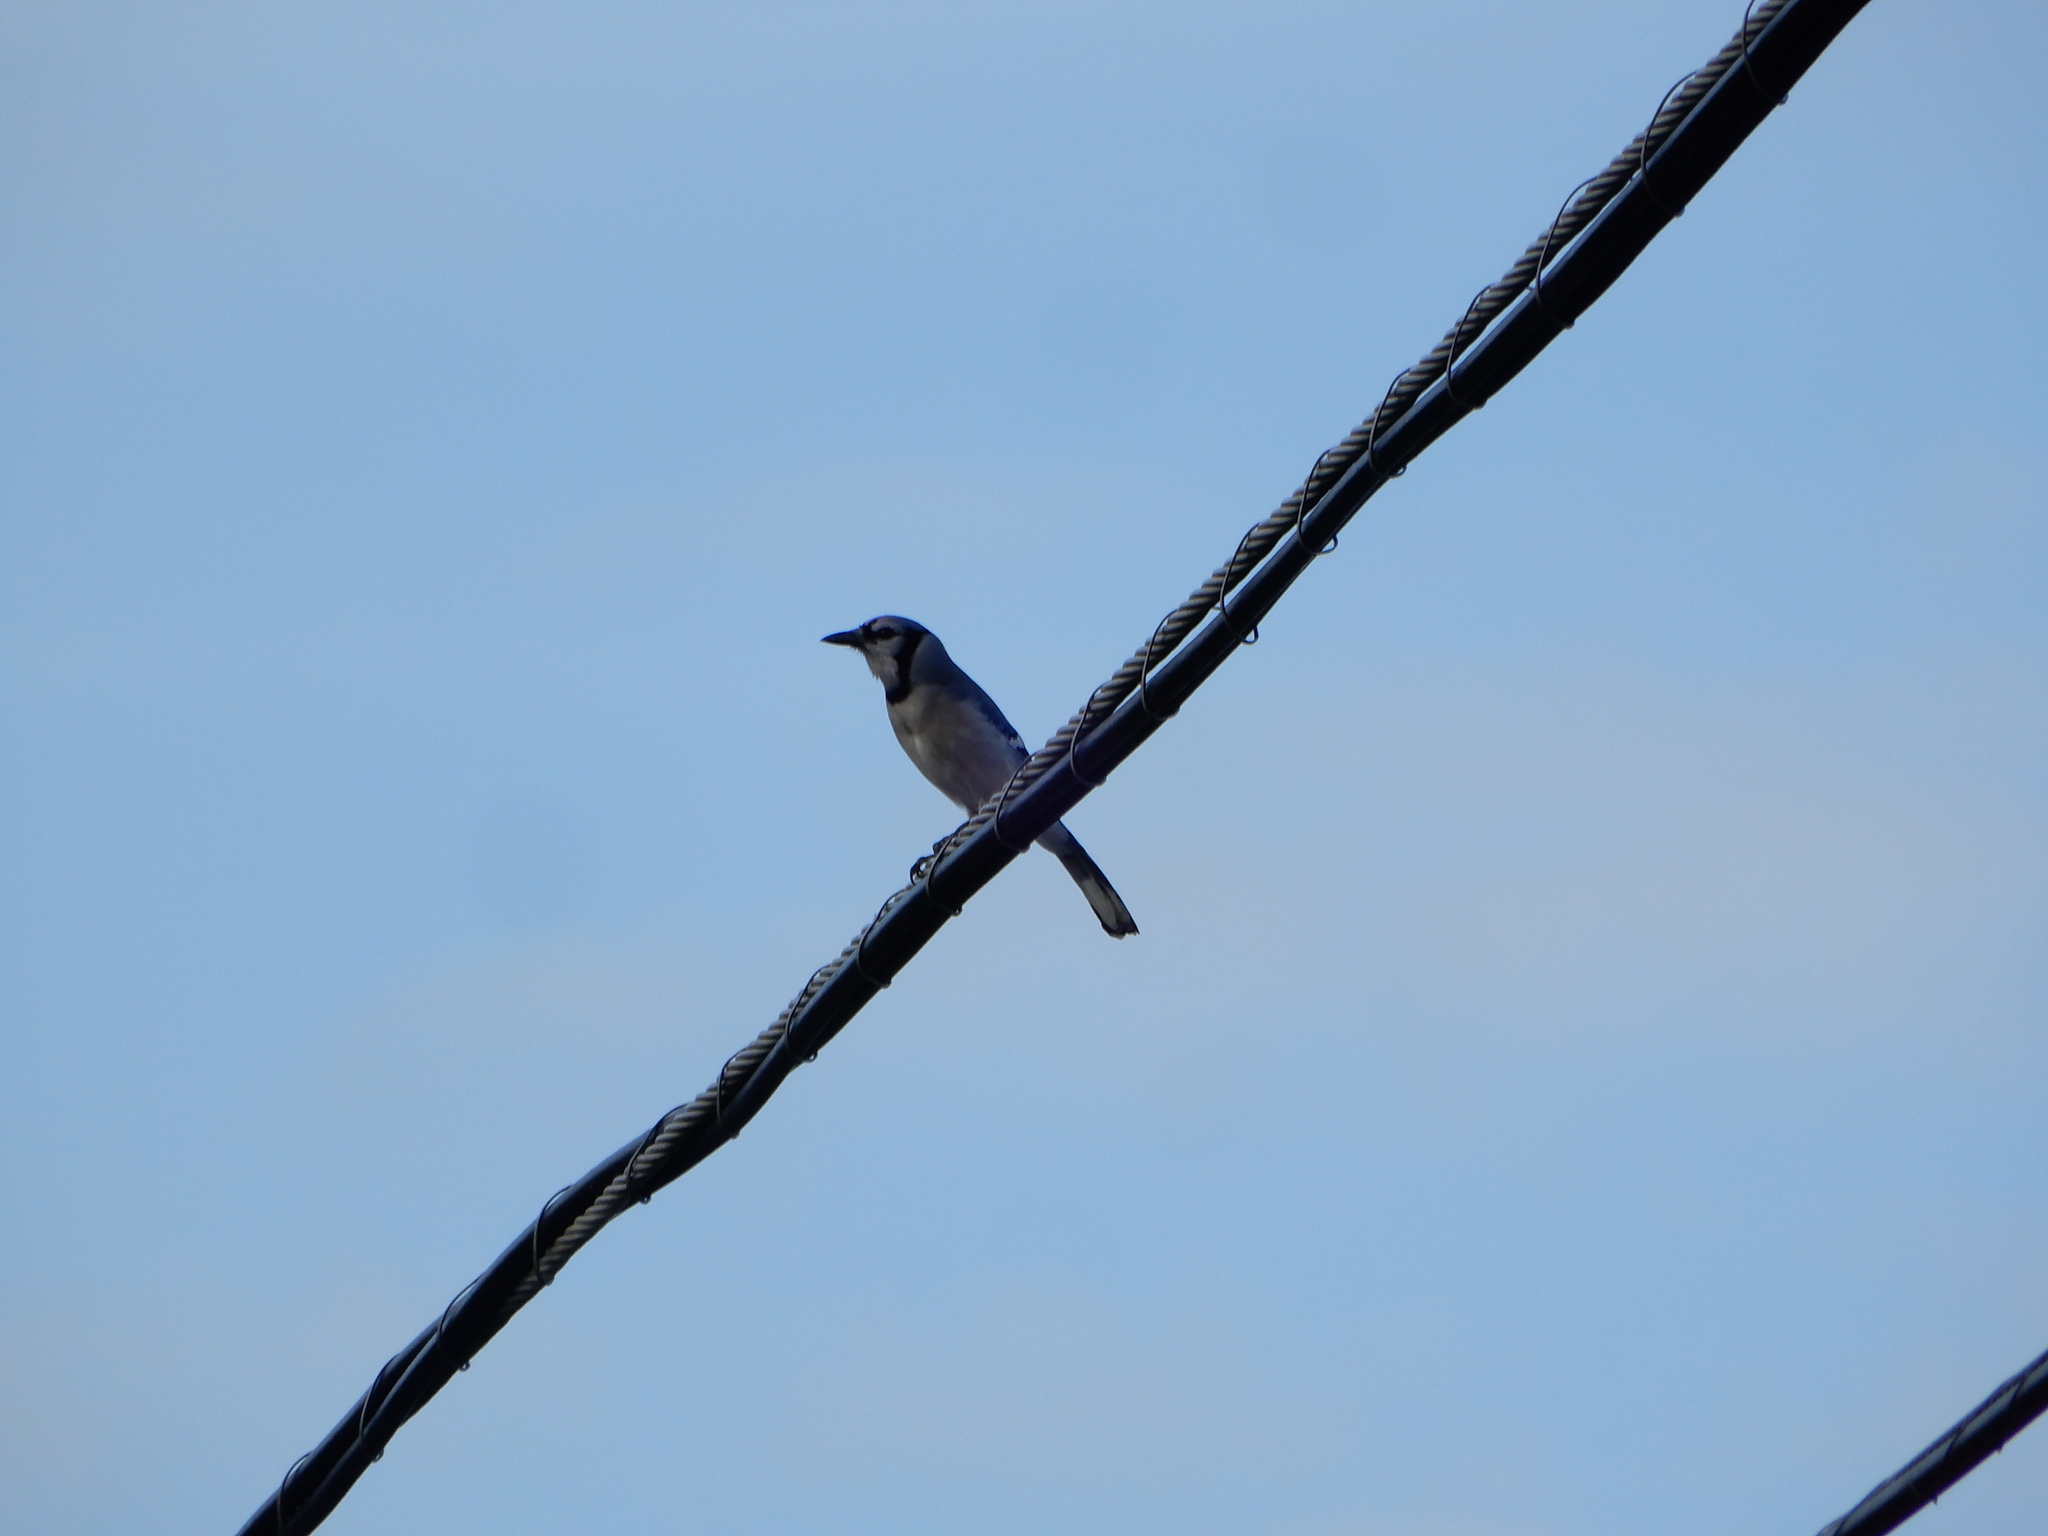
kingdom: Animalia
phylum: Chordata
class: Aves
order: Passeriformes
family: Corvidae
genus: Cyanocitta
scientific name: Cyanocitta cristata
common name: Blue jay
